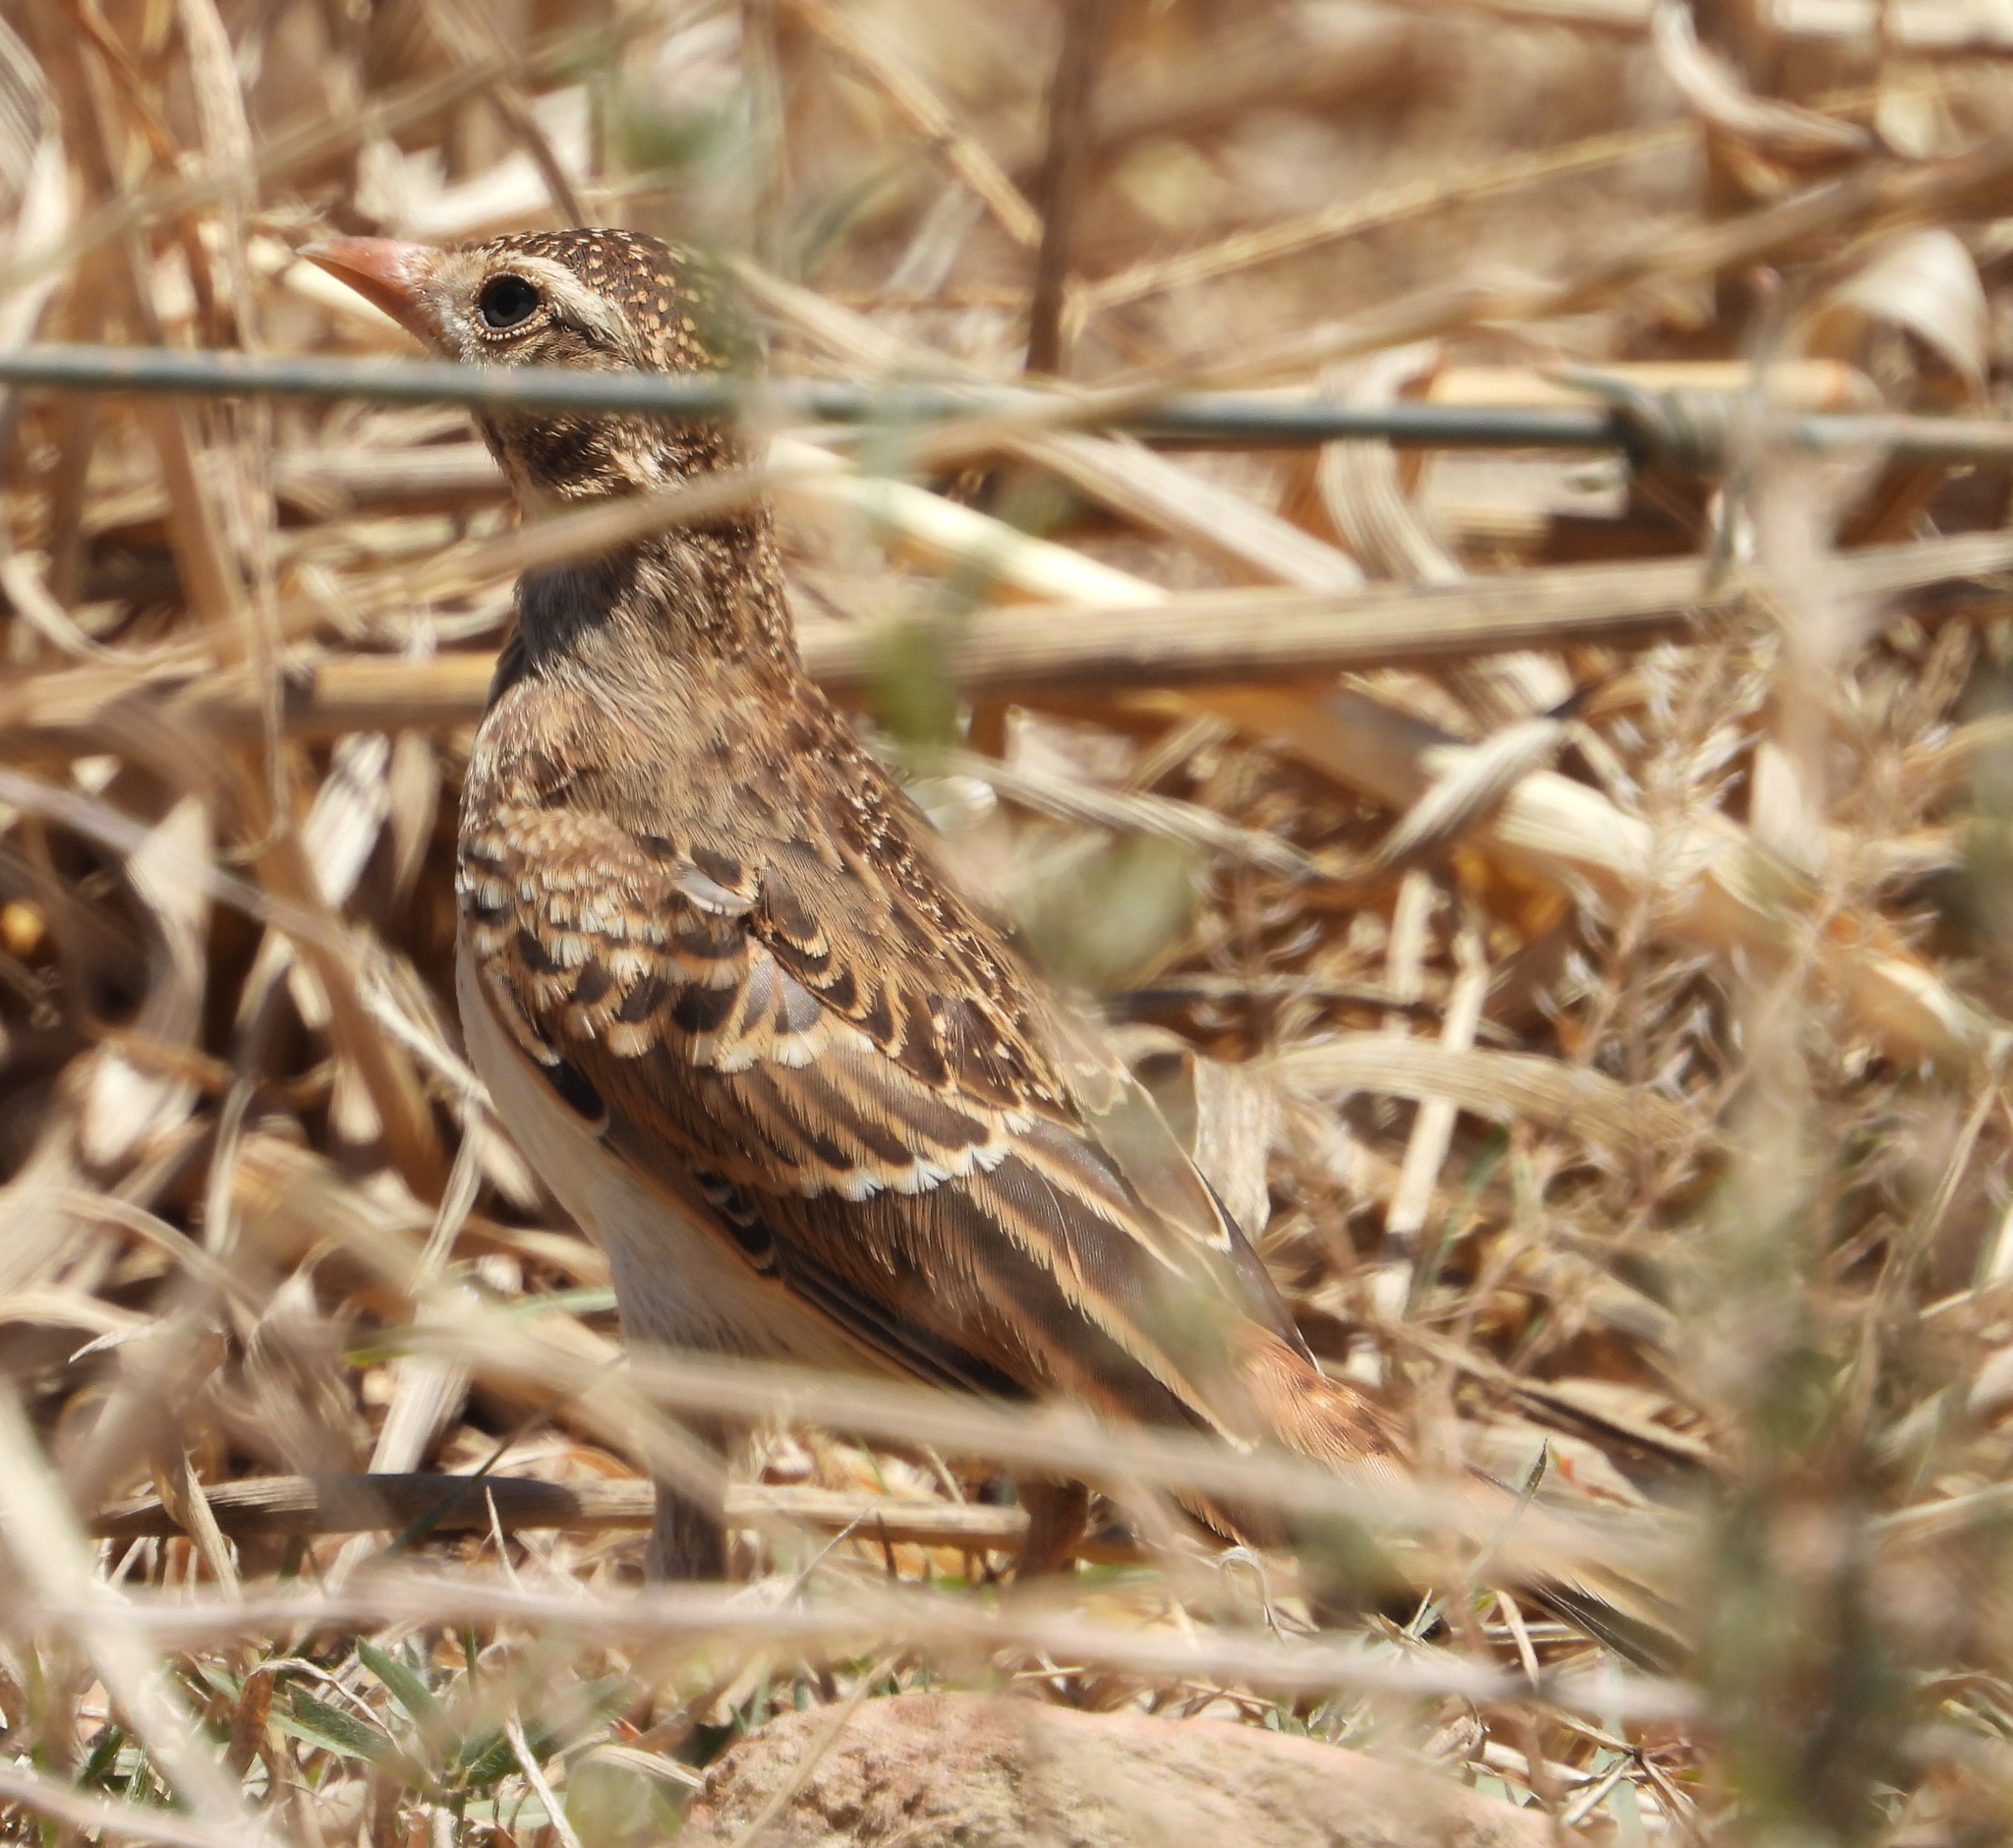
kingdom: Animalia
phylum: Chordata
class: Aves
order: Passeriformes
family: Alaudidae
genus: Calandrella
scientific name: Calandrella cinerea
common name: Red-capped lark
